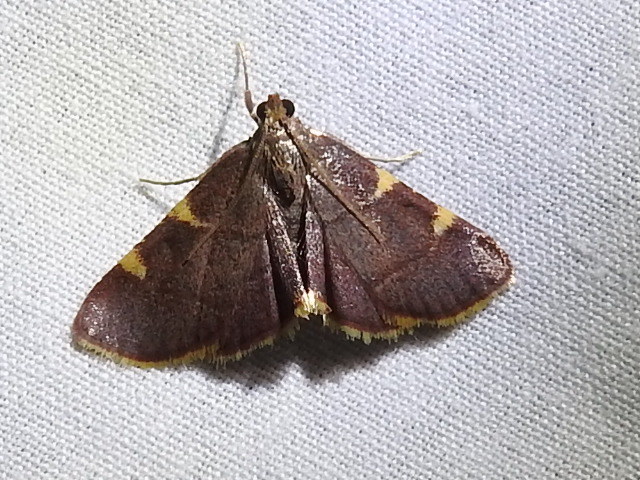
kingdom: Animalia
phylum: Arthropoda
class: Insecta
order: Lepidoptera
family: Pyralidae
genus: Hypsopygia
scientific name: Hypsopygia olinalis
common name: Yellow-fringed dolichomia moth
